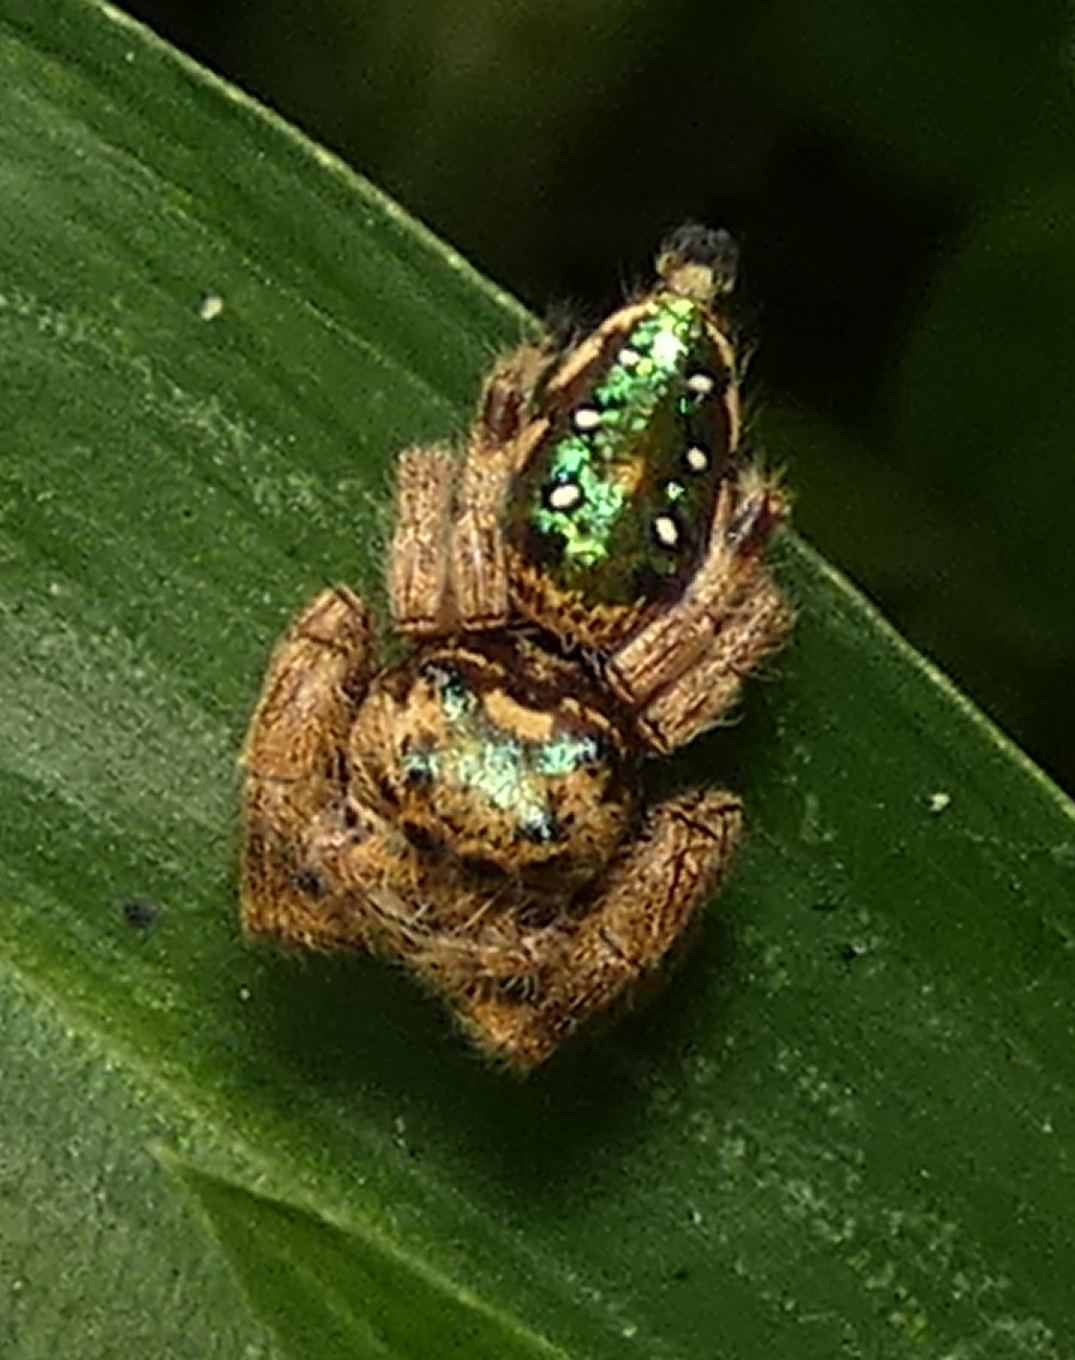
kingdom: Animalia
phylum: Arthropoda
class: Arachnida
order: Araneae
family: Salticidae
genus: Parnaenus
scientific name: Parnaenus cyanidens
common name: Jumping spiders
